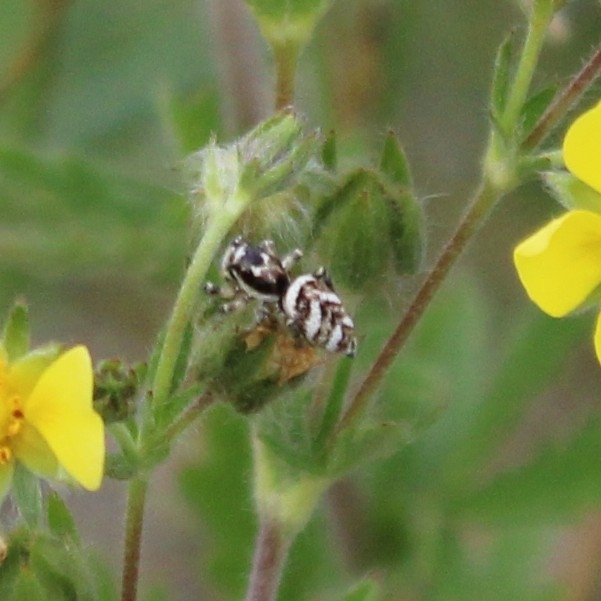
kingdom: Animalia
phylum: Arthropoda
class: Arachnida
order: Araneae
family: Salticidae
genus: Salticus
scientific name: Salticus scenicus
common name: Zebra jumper
